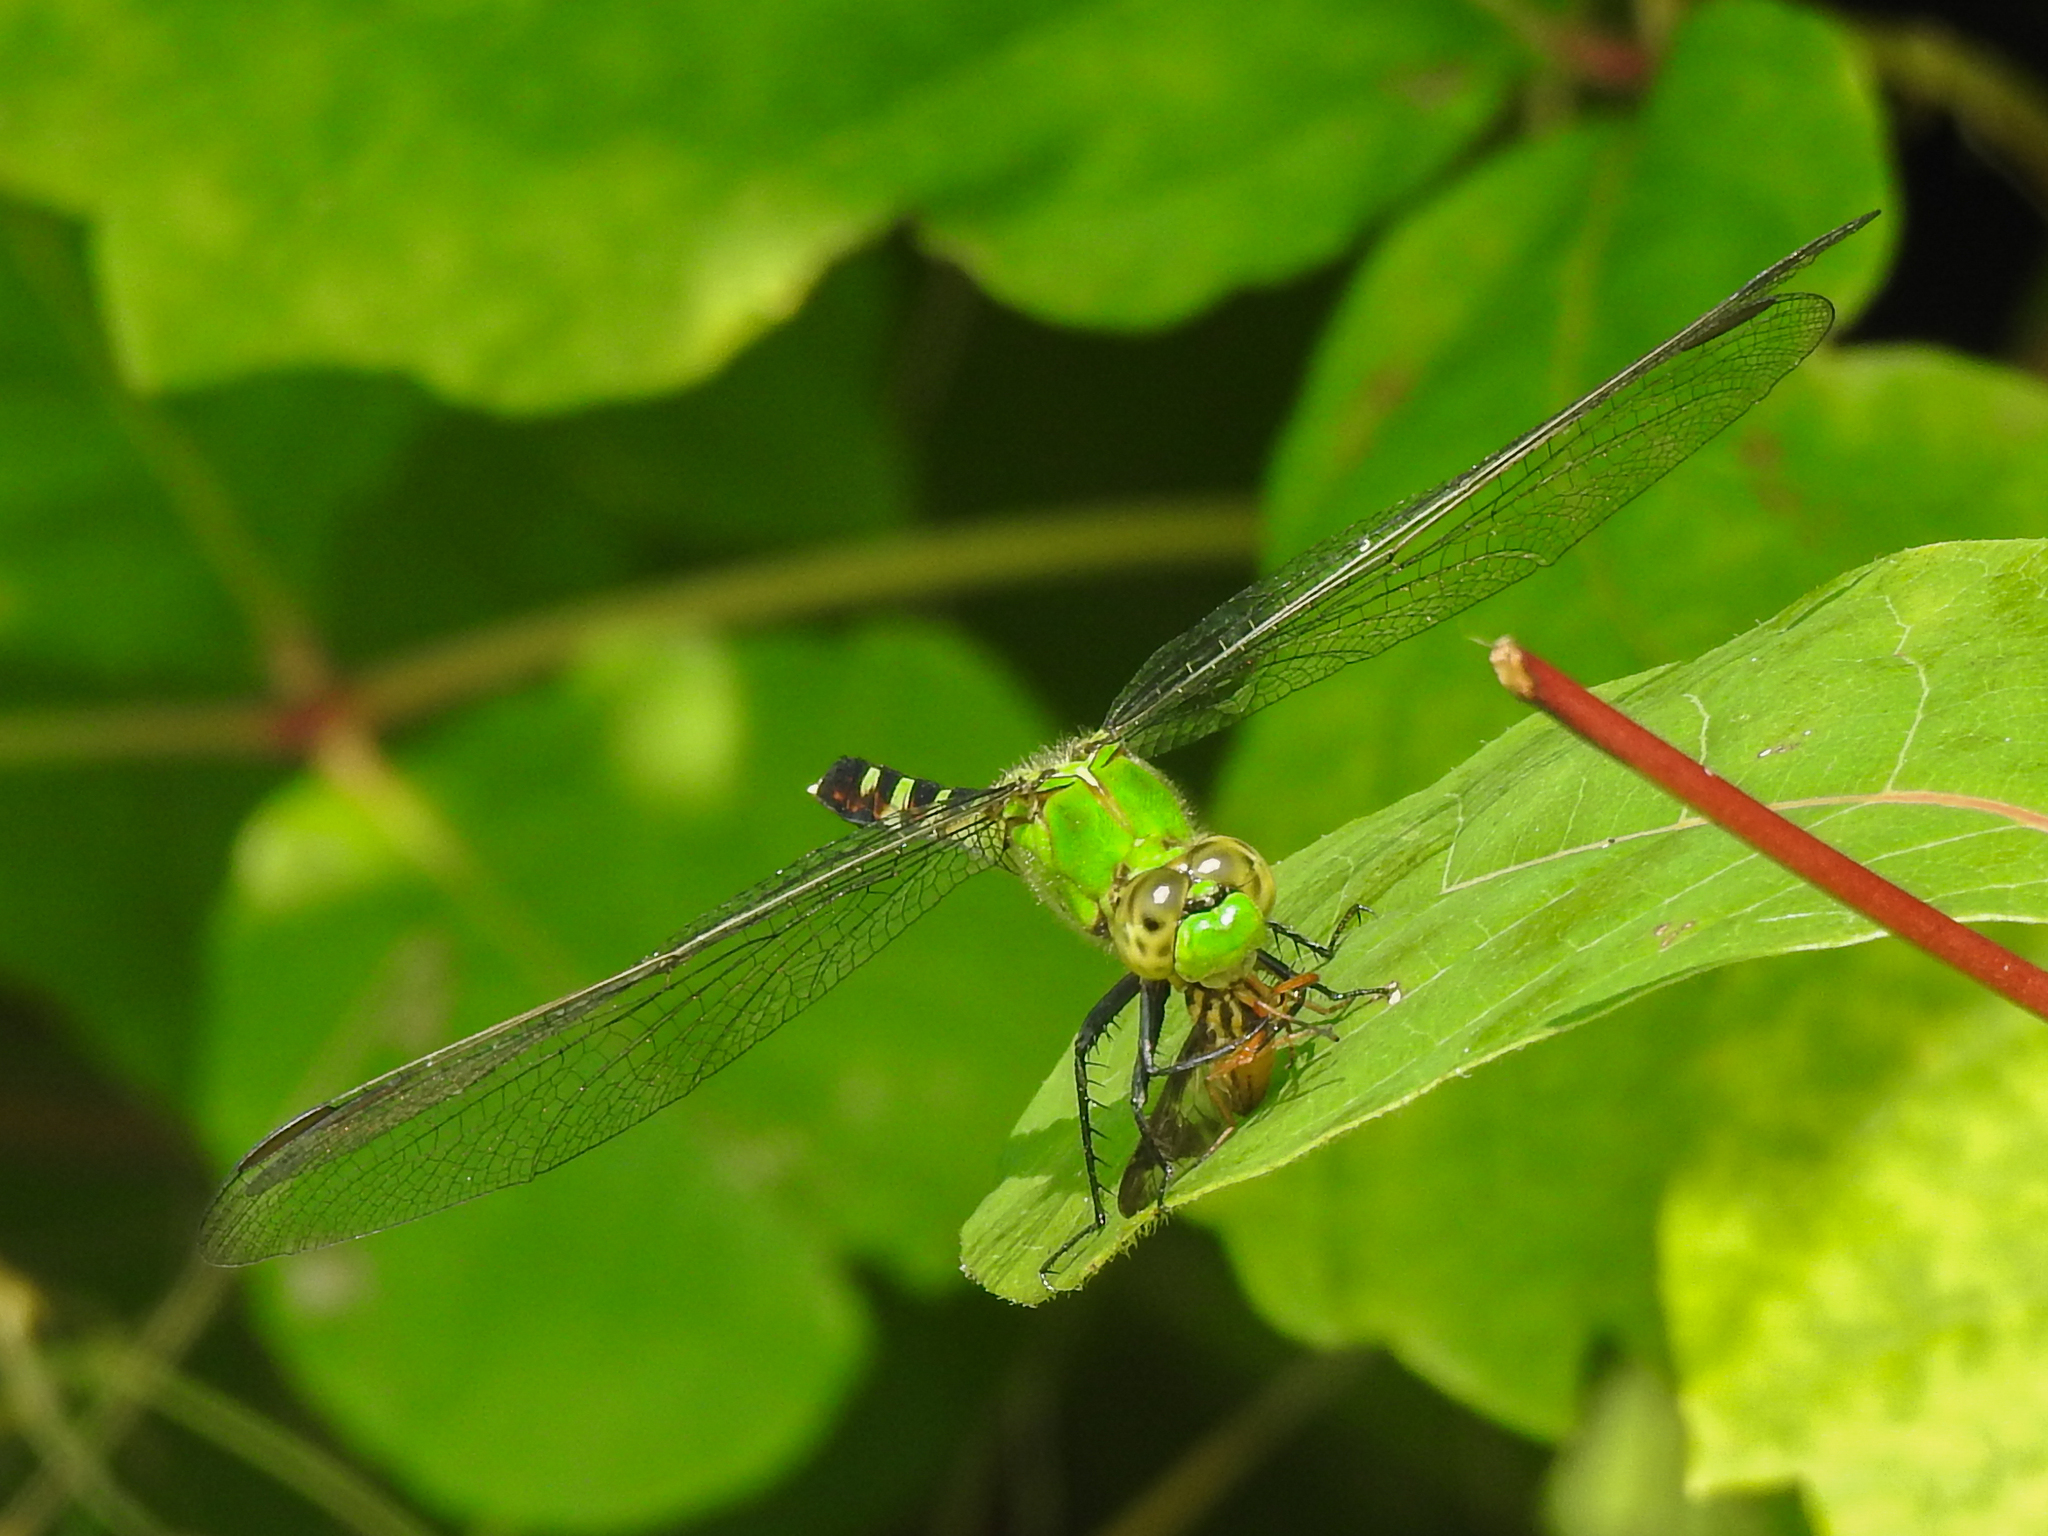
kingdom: Animalia
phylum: Arthropoda
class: Insecta
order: Odonata
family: Libellulidae
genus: Erythemis
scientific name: Erythemis simplicicollis
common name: Eastern pondhawk
